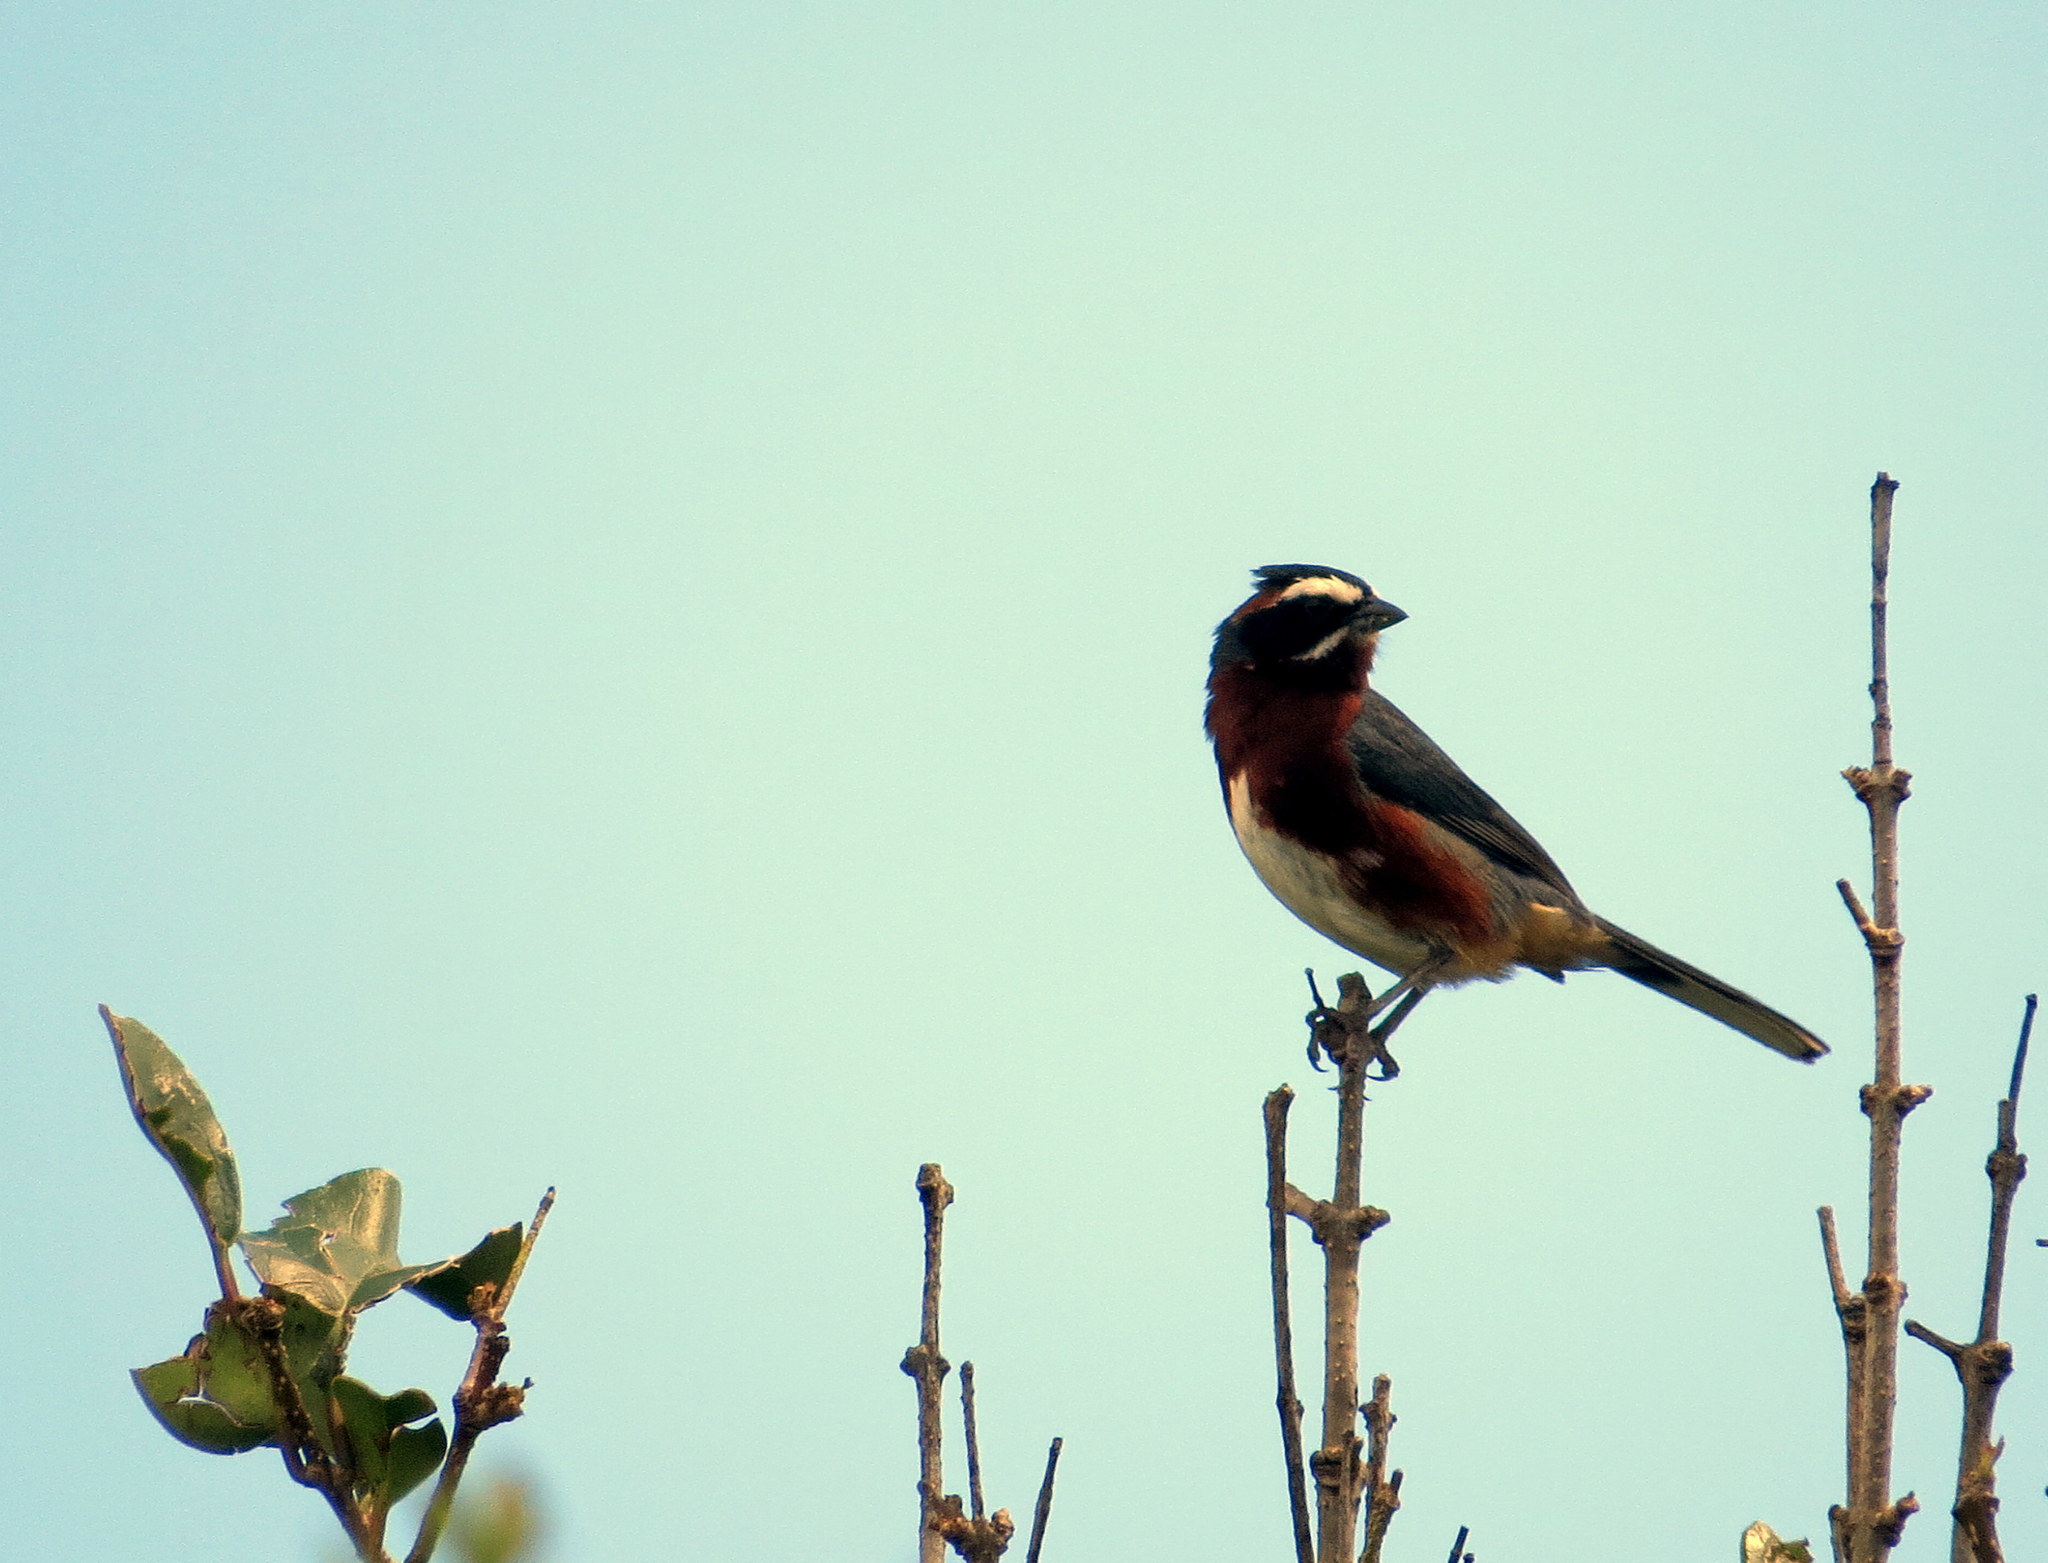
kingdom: Animalia
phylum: Chordata
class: Aves
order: Passeriformes
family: Thraupidae
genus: Poospiza
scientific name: Poospiza whitii
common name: Black-and-chestnut warbling finch
